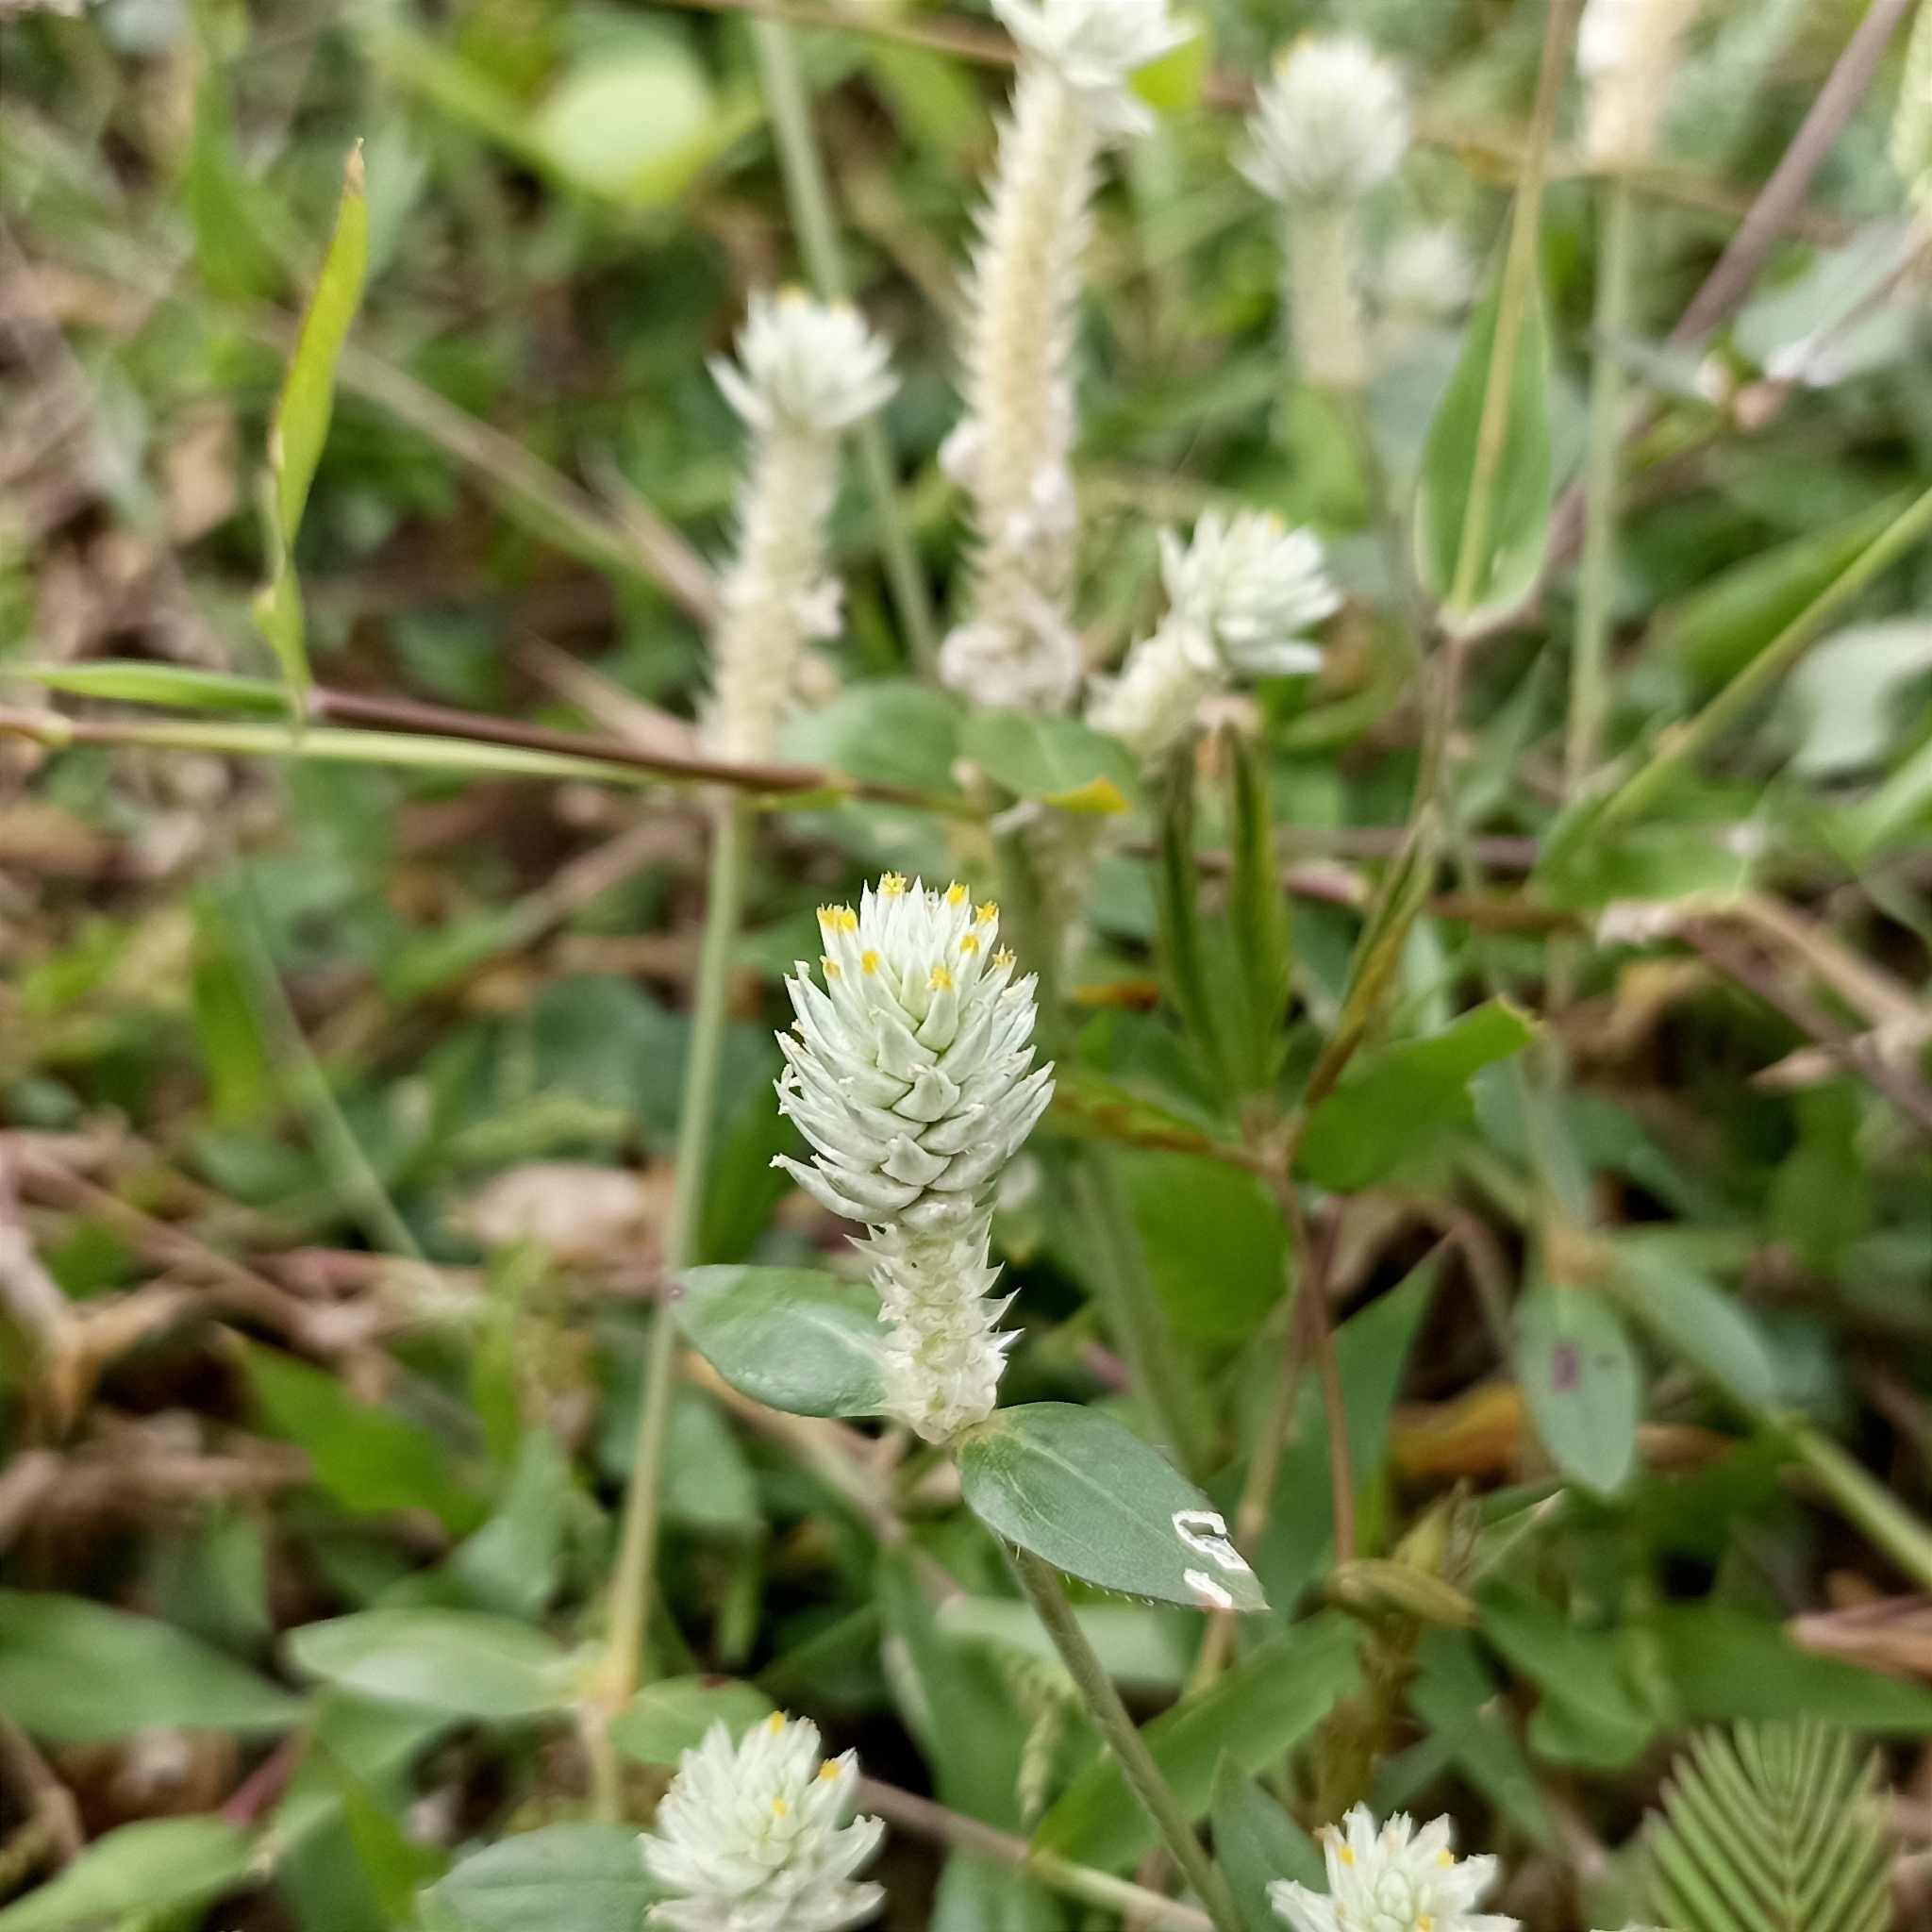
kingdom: Plantae
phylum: Tracheophyta
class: Magnoliopsida
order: Caryophyllales
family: Amaranthaceae
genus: Gomphrena
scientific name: Gomphrena celosioides
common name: Gomphrena-weed
